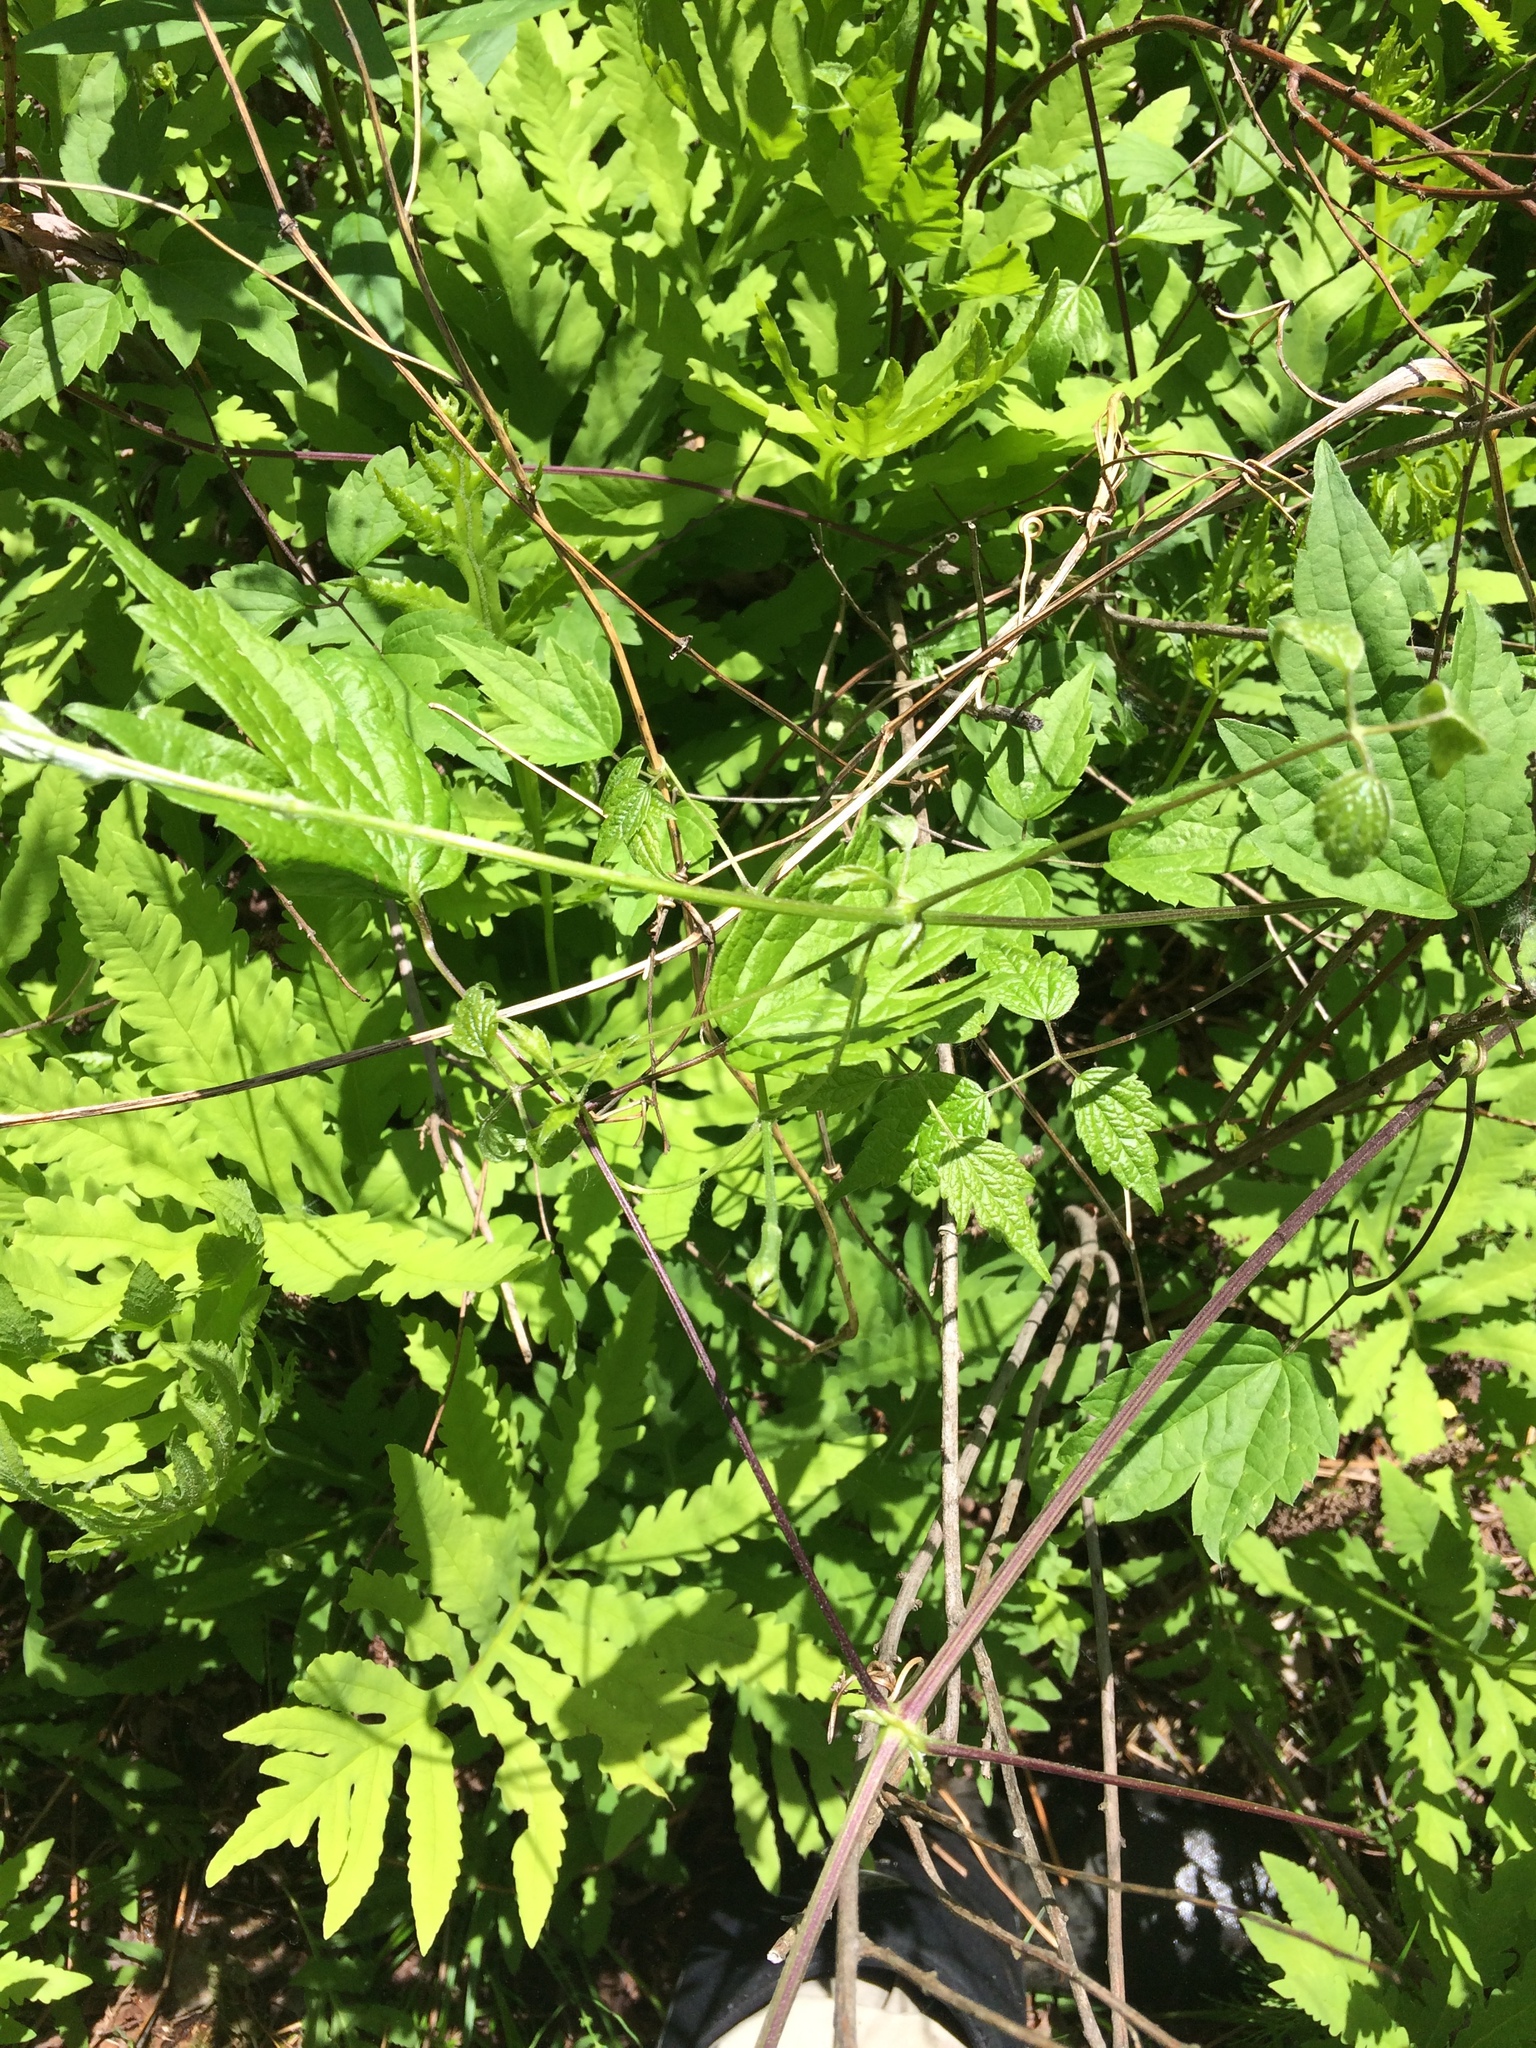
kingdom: Plantae
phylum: Tracheophyta
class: Magnoliopsida
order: Ranunculales
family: Ranunculaceae
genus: Clematis
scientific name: Clematis virginiana
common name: Virgin's-bower
